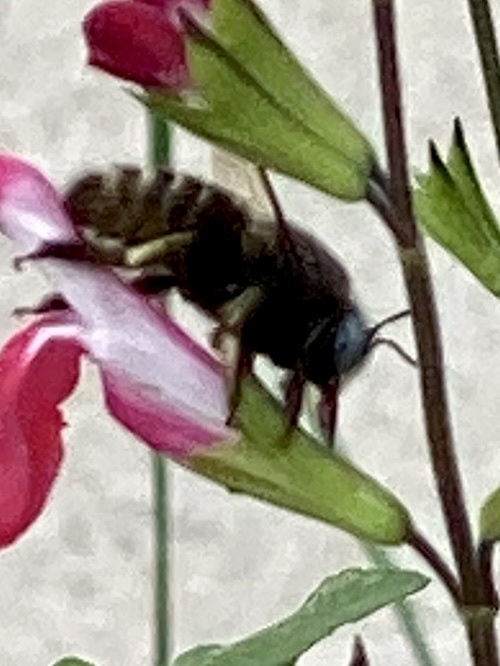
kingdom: Animalia
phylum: Arthropoda
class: Insecta
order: Hymenoptera
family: Apidae
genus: Xylocopa
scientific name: Xylocopa tabaniformis
